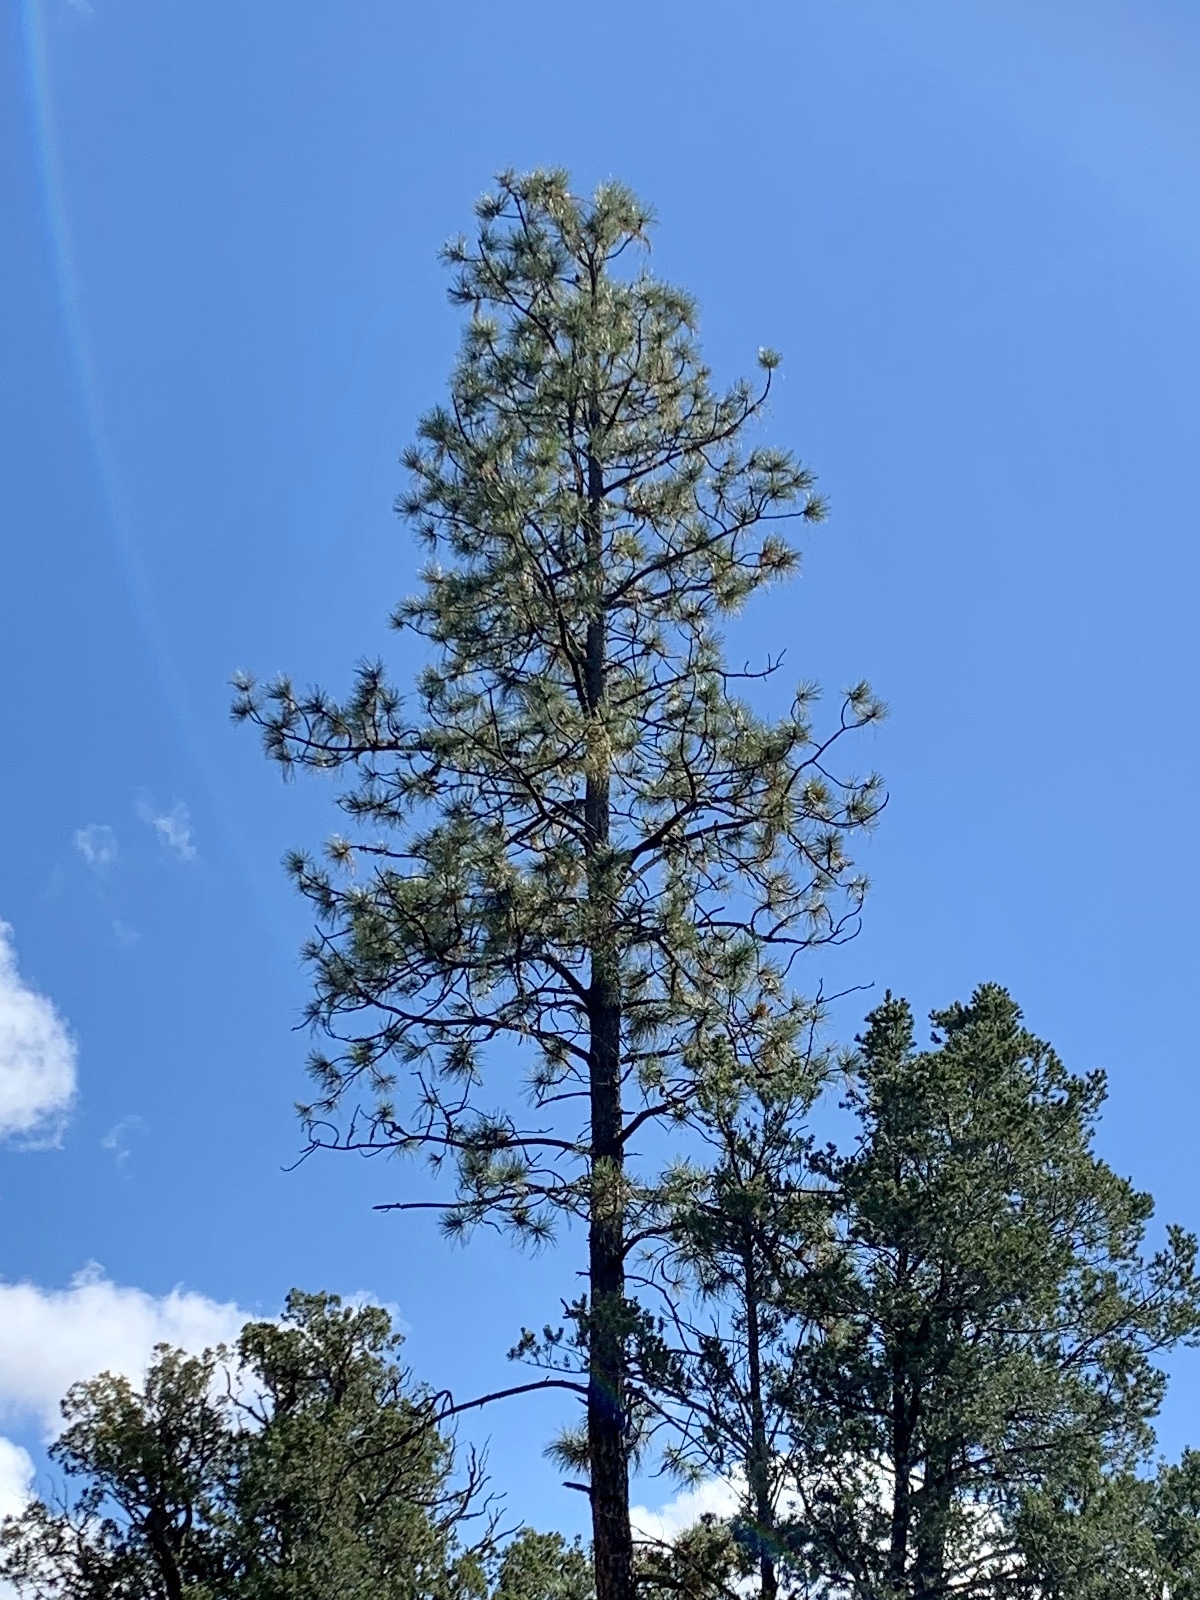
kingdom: Plantae
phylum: Tracheophyta
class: Pinopsida
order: Pinales
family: Pinaceae
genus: Pinus
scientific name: Pinus ponderosa
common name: Western yellow-pine
